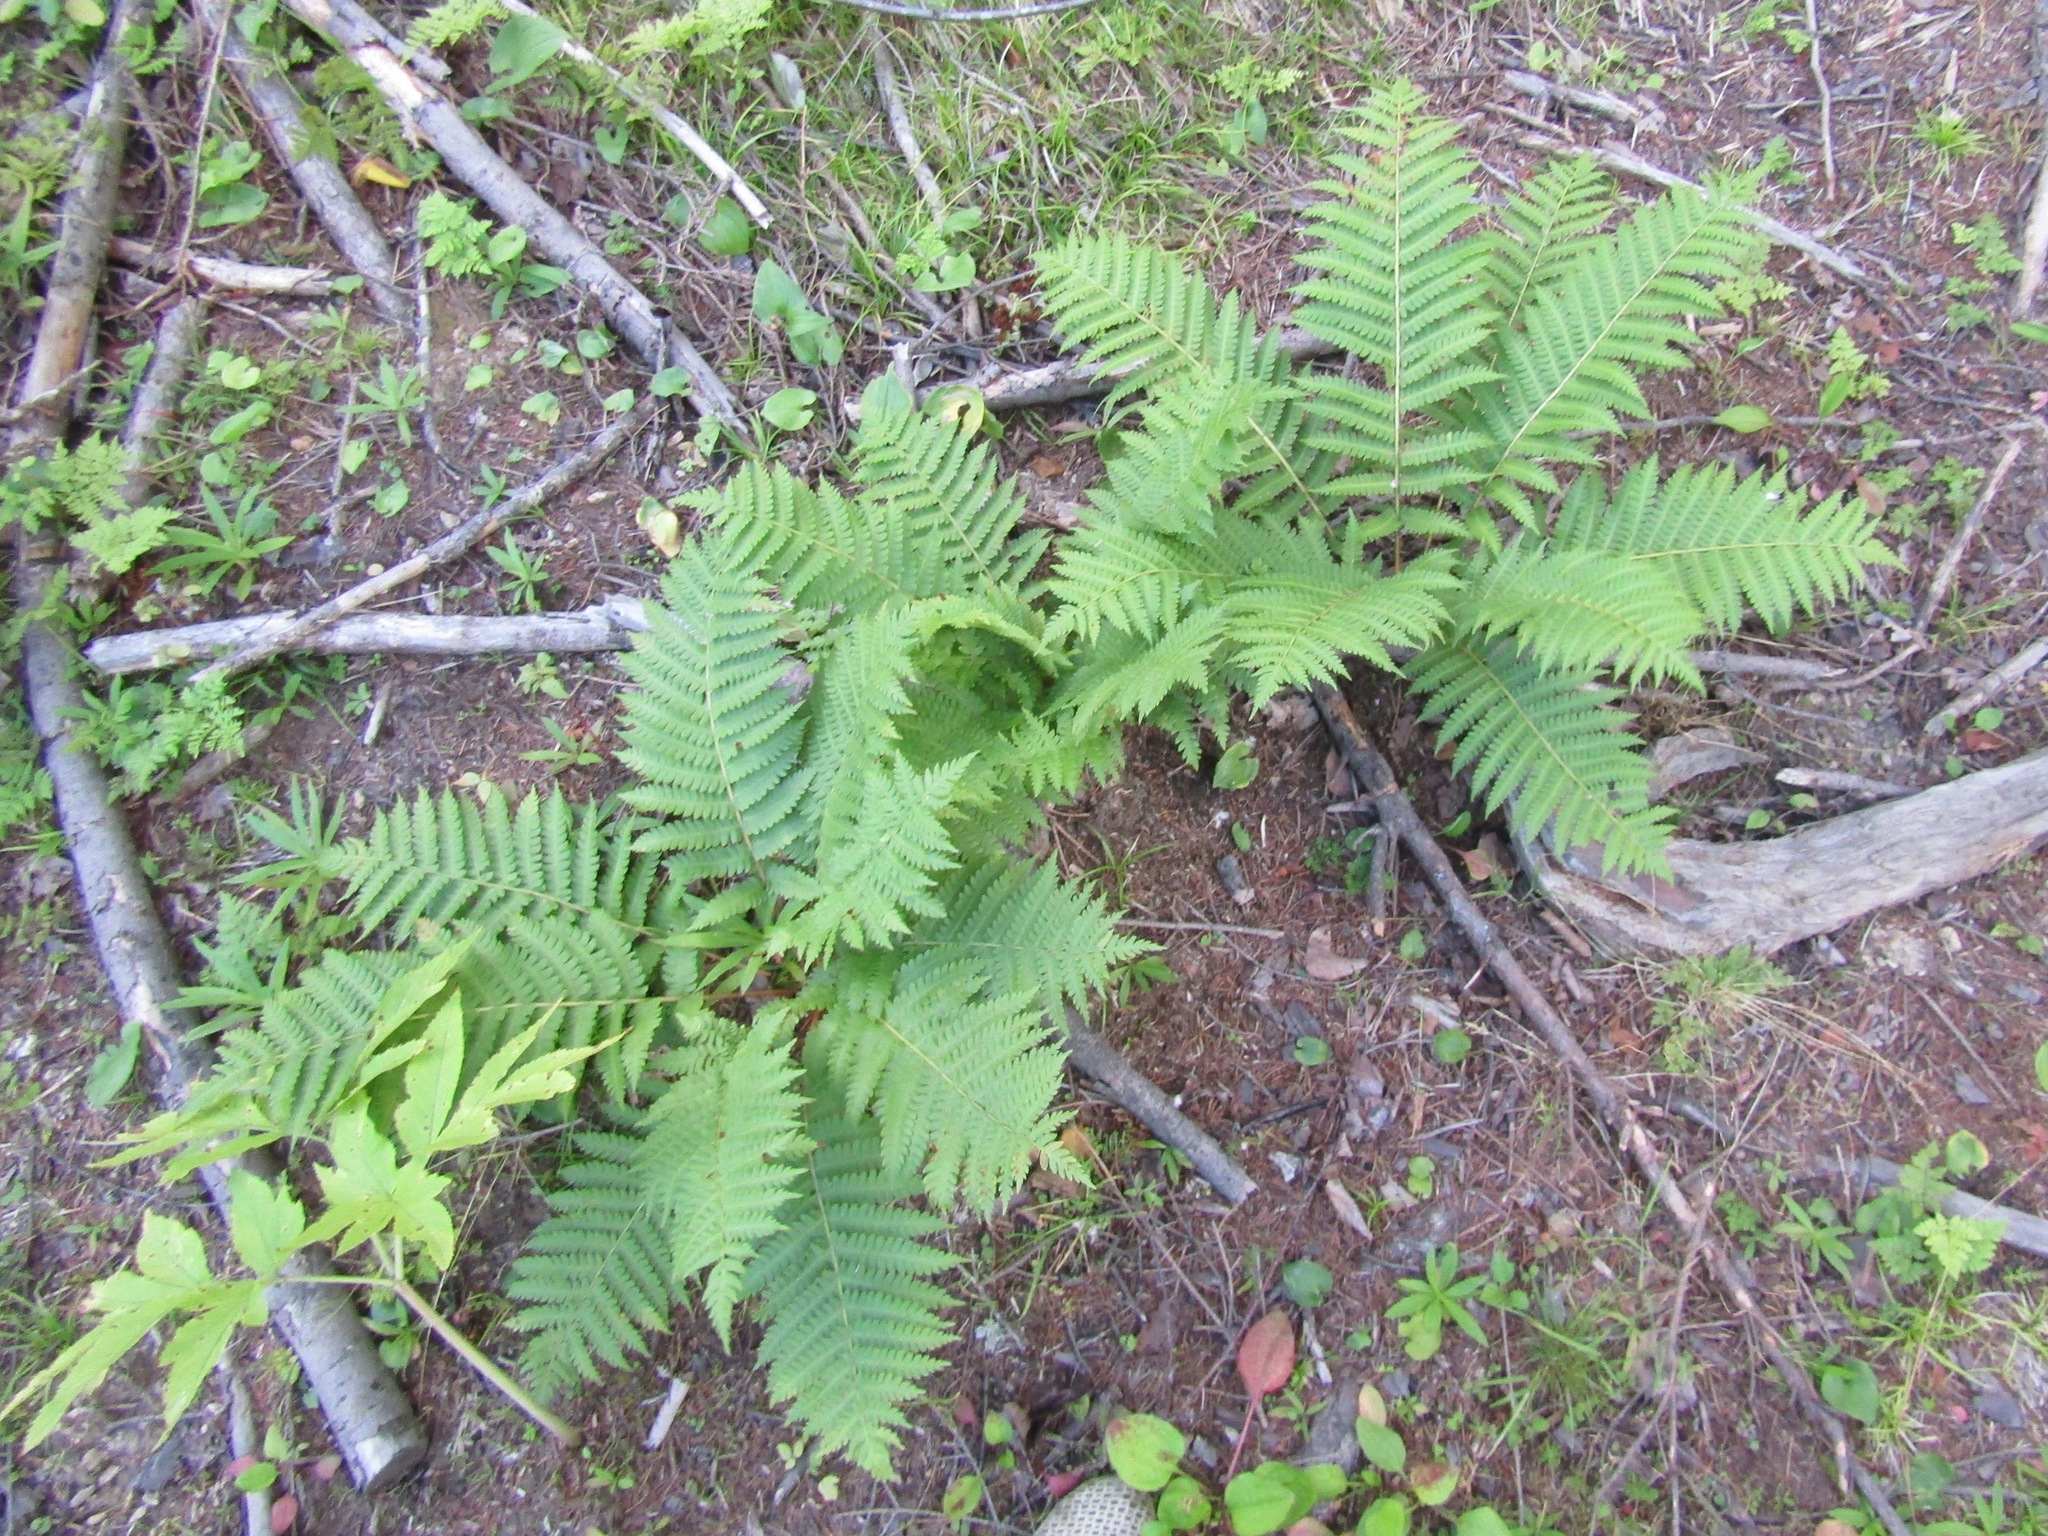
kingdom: Plantae
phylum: Tracheophyta
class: Polypodiopsida
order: Osmundales
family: Osmundaceae
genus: Osmundastrum
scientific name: Osmundastrum cinnamomeum
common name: Cinnamon fern
